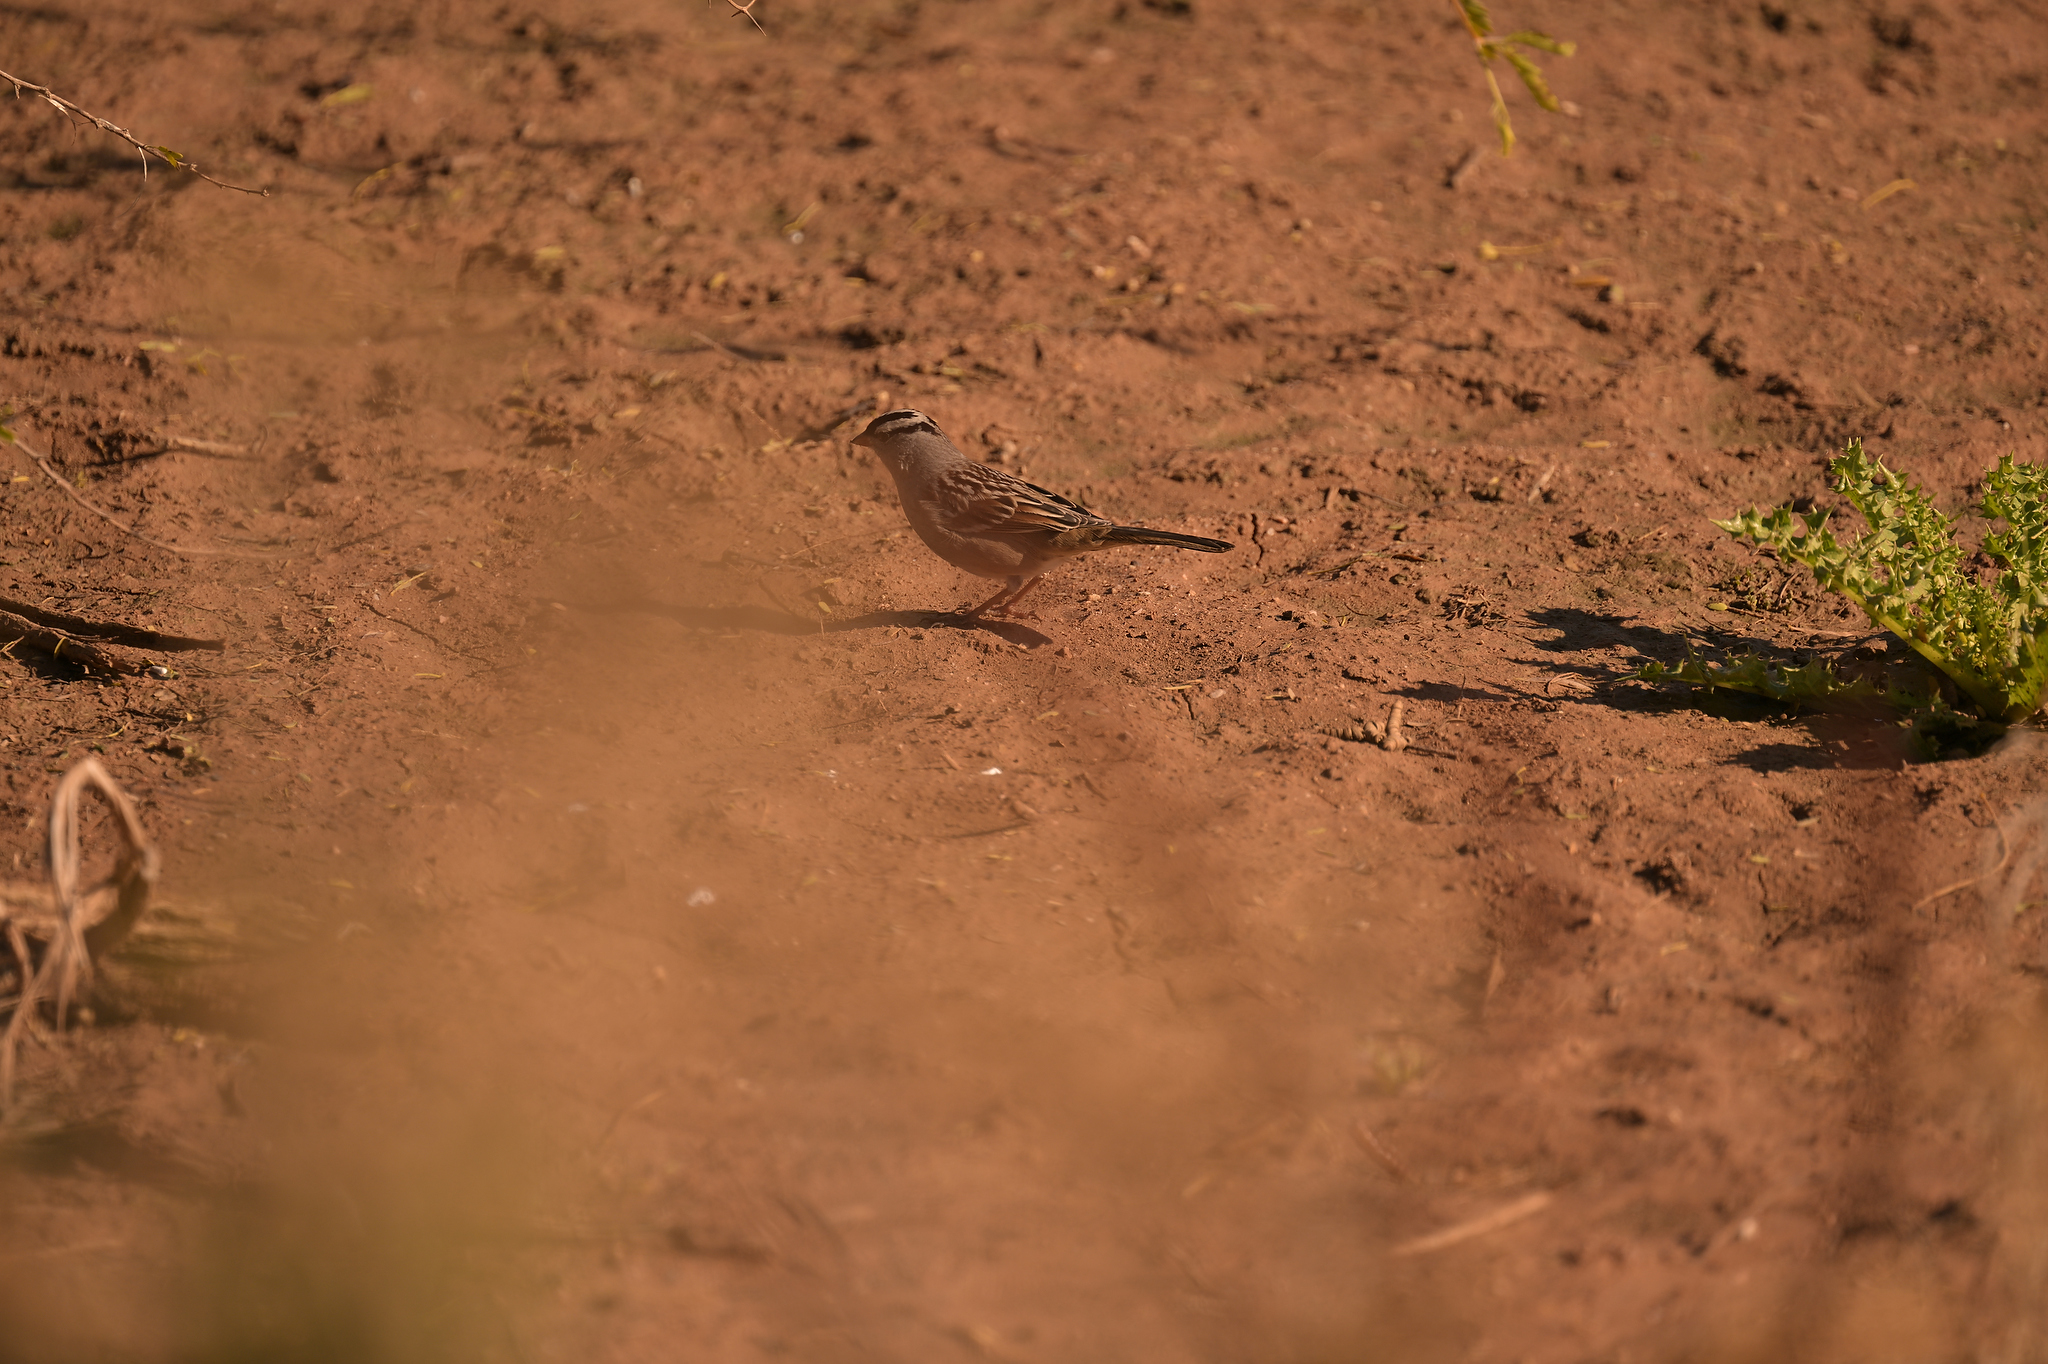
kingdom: Animalia
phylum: Chordata
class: Aves
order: Passeriformes
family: Passerellidae
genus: Zonotrichia
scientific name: Zonotrichia leucophrys
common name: White-crowned sparrow
